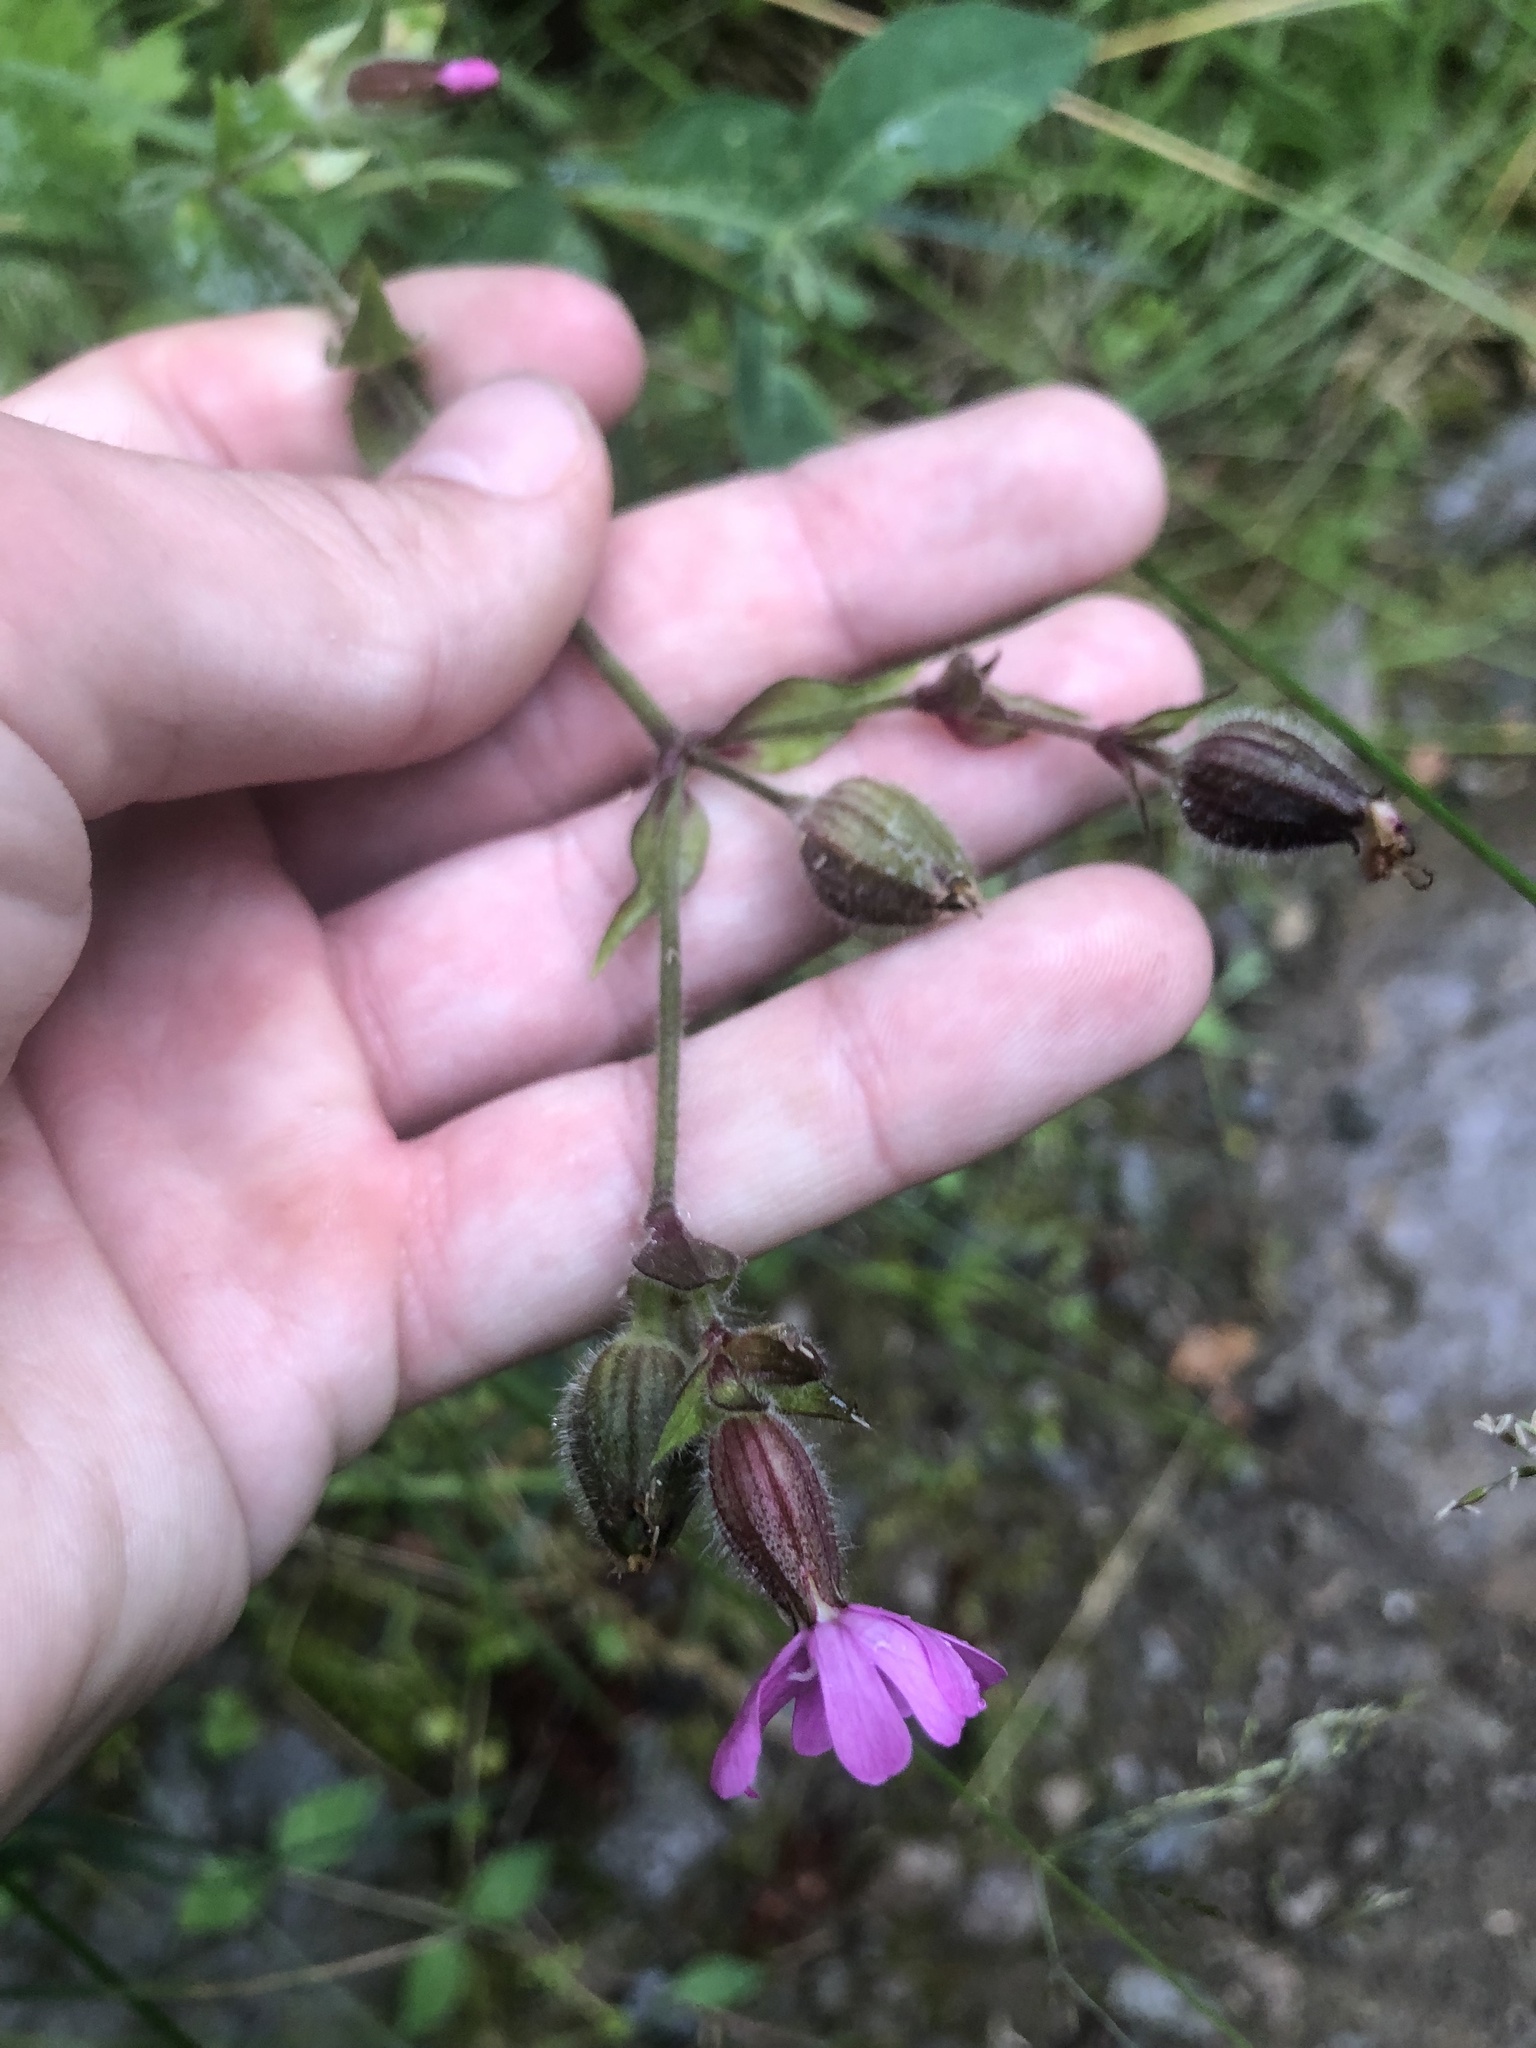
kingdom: Plantae
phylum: Tracheophyta
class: Magnoliopsida
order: Caryophyllales
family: Caryophyllaceae
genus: Silene
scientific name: Silene dioica
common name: Red campion
